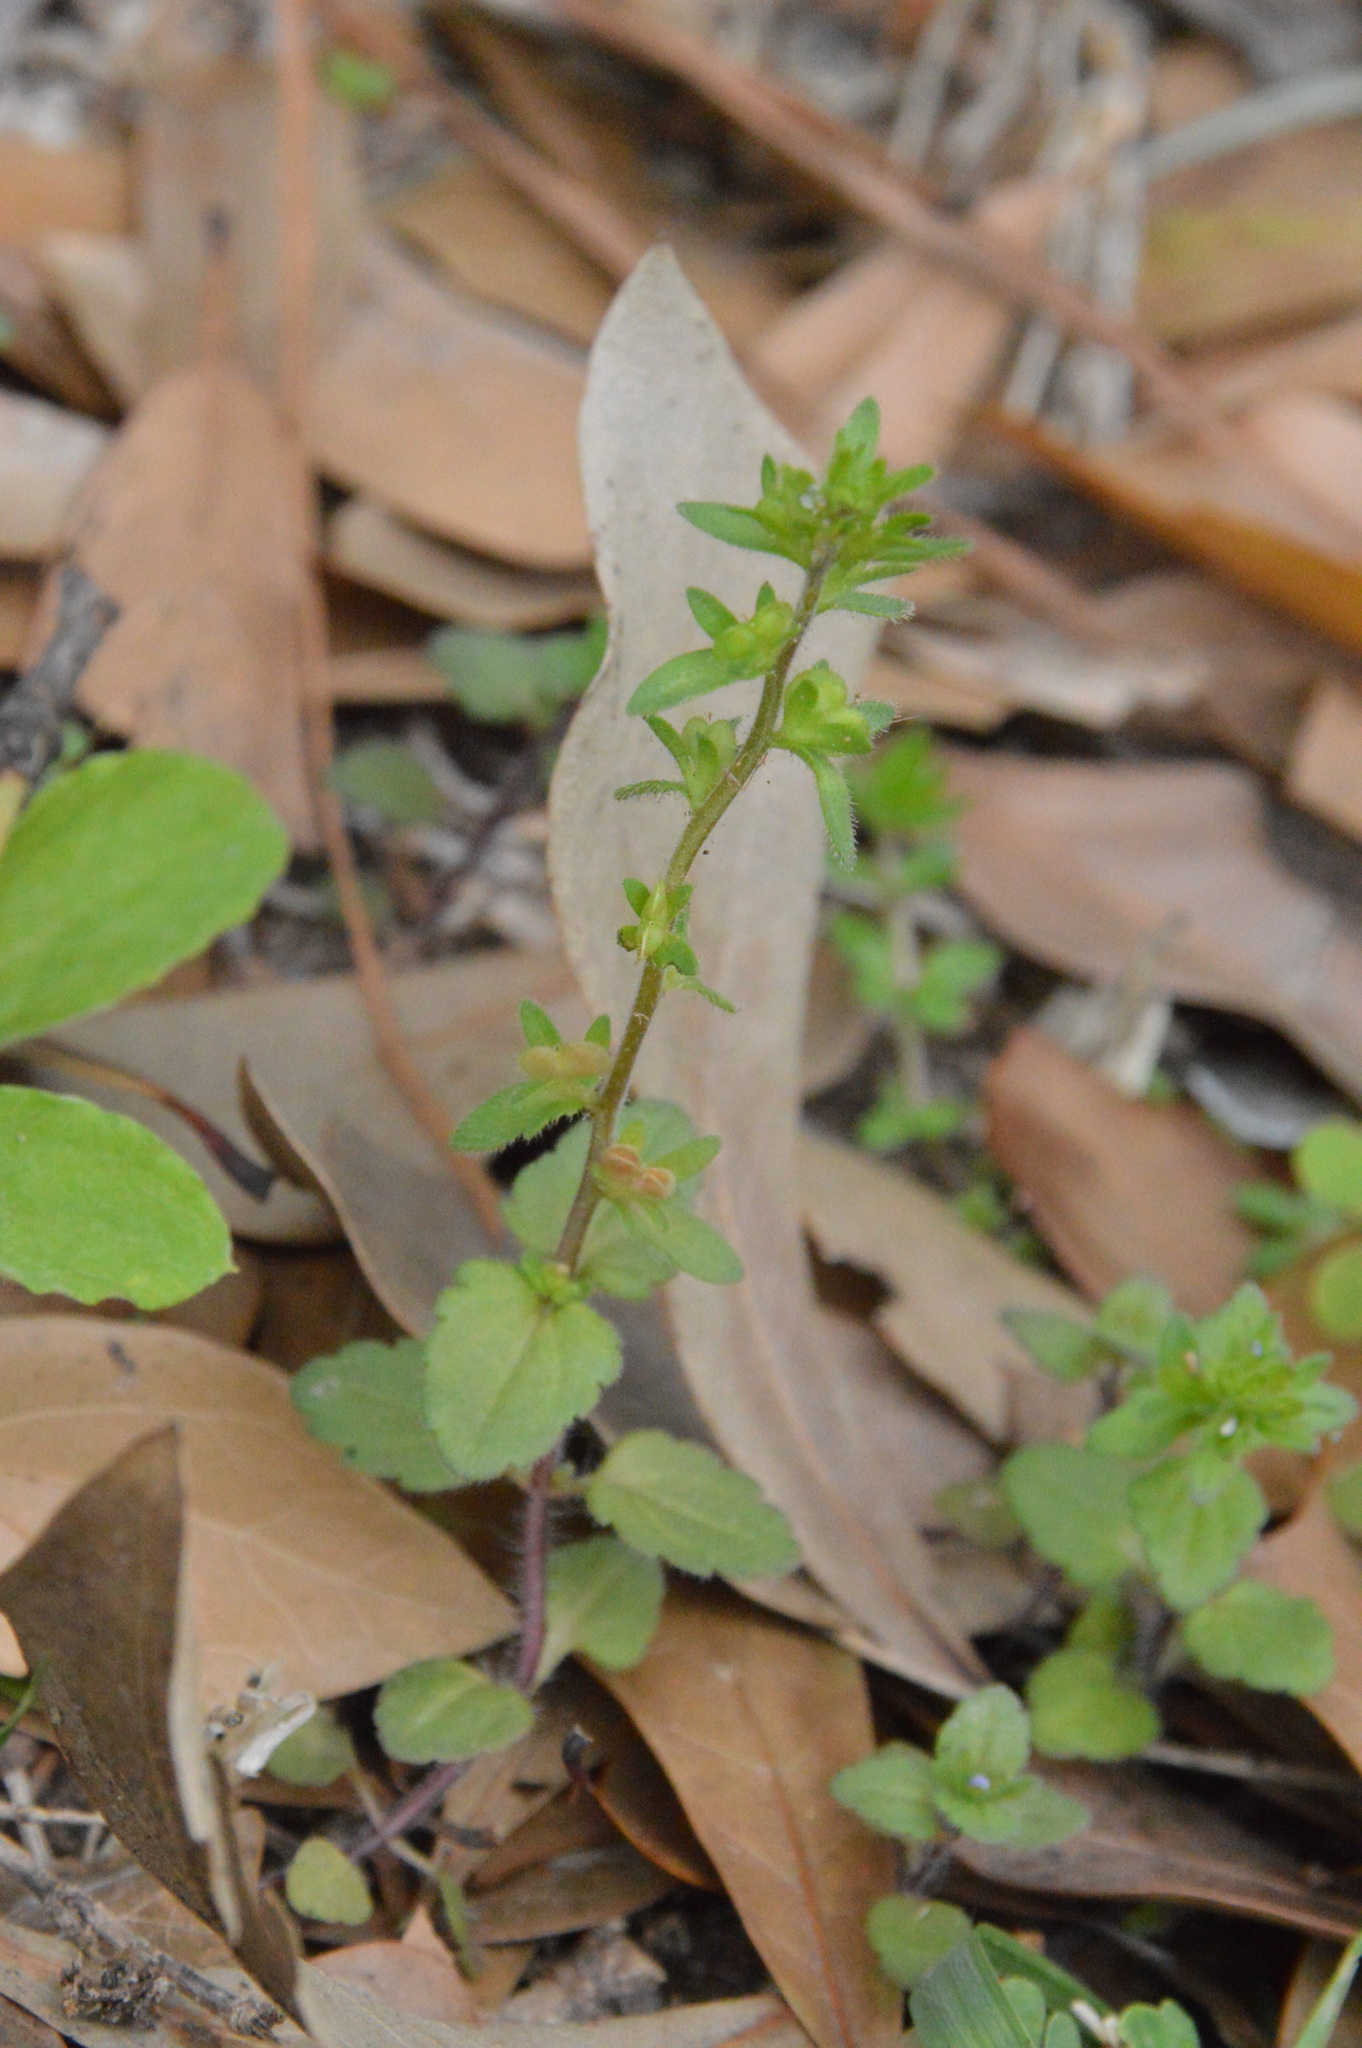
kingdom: Plantae
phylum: Tracheophyta
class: Magnoliopsida
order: Lamiales
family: Plantaginaceae
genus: Veronica
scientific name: Veronica arvensis
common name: Corn speedwell
